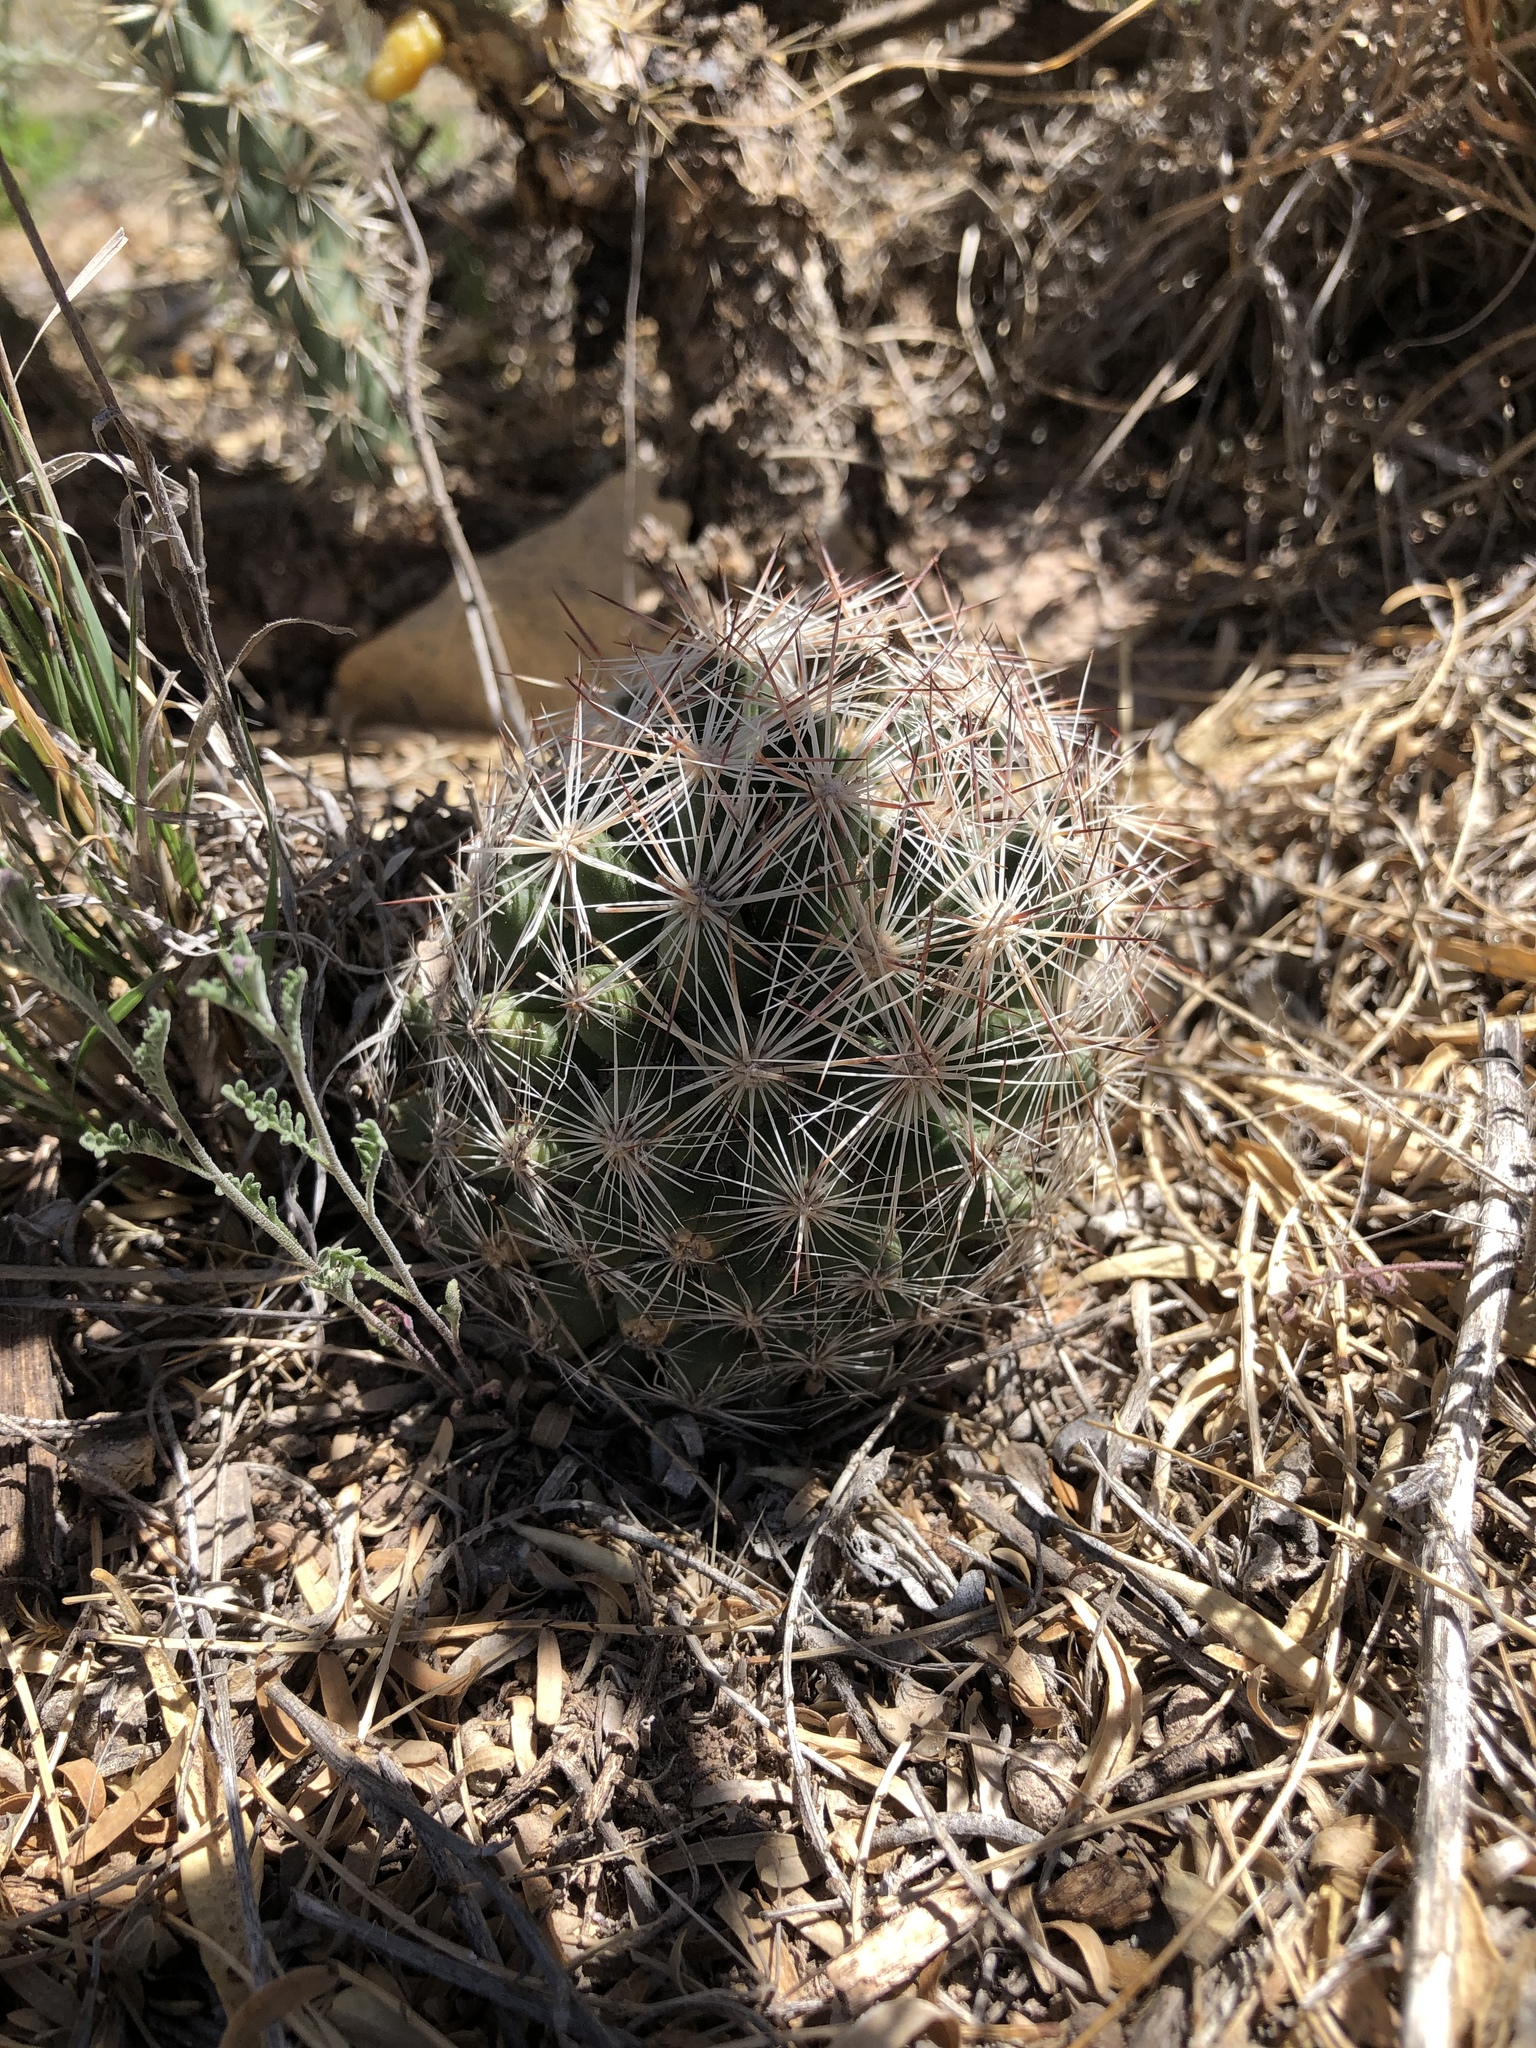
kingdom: Plantae
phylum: Tracheophyta
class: Magnoliopsida
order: Caryophyllales
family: Cactaceae
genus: Pelecyphora
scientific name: Pelecyphora vivipara
